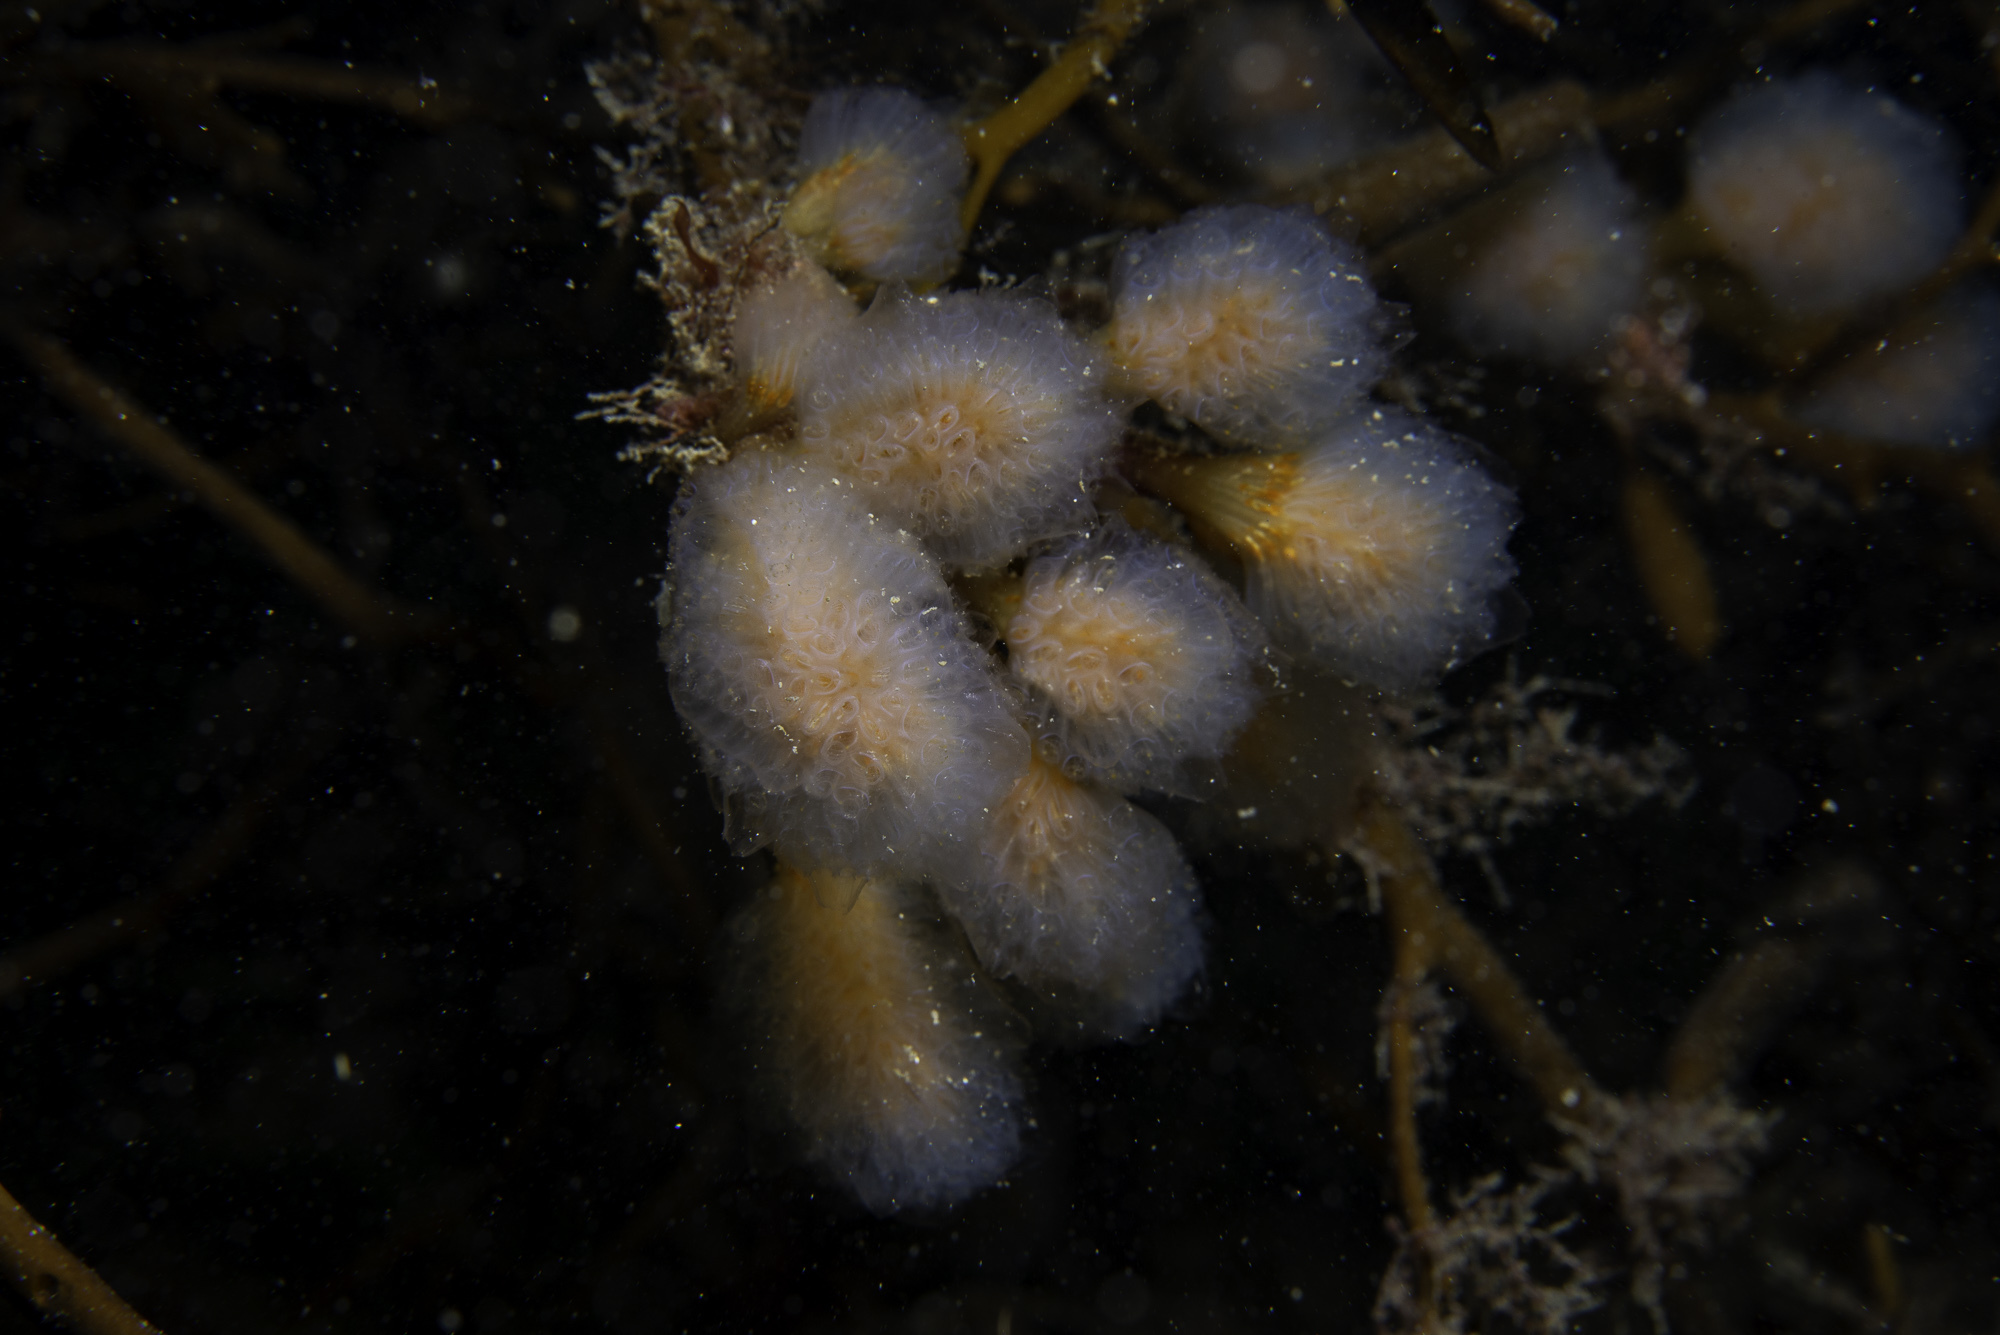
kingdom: Animalia
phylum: Chordata
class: Ascidiacea
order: Aplousobranchia
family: Polyclinidae
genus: Aplidium
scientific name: Aplidium punctum
